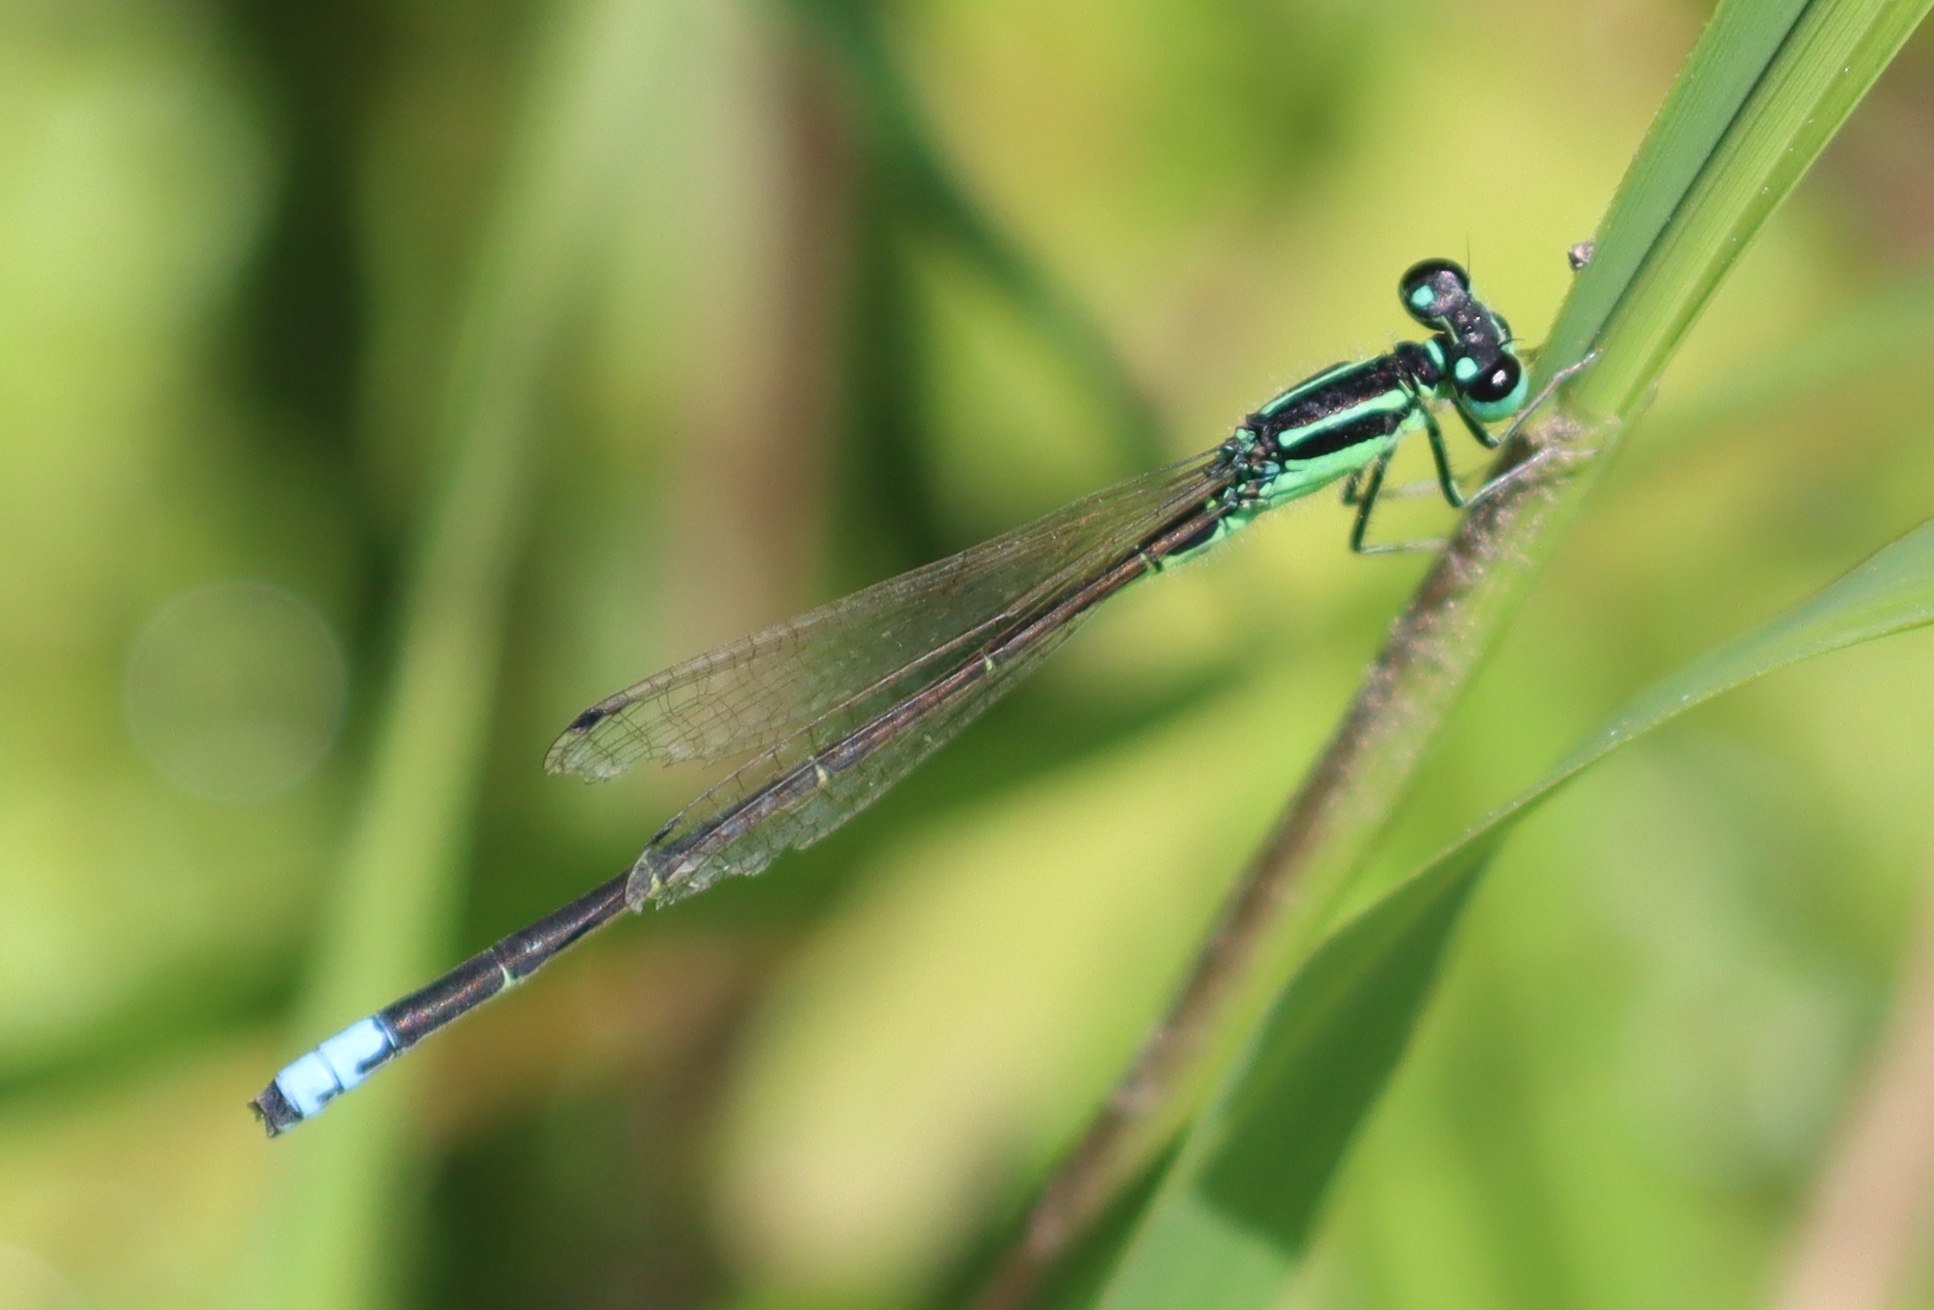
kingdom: Animalia
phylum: Arthropoda
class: Insecta
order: Odonata
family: Coenagrionidae
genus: Ischnura
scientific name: Ischnura verticalis
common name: Eastern forktail
